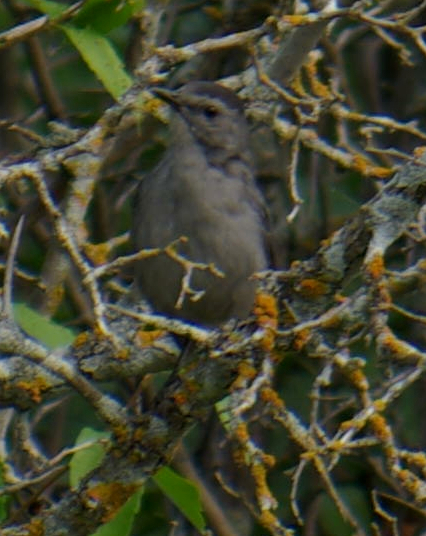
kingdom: Animalia
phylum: Chordata
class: Aves
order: Passeriformes
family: Mimidae
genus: Dumetella
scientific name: Dumetella carolinensis
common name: Gray catbird
